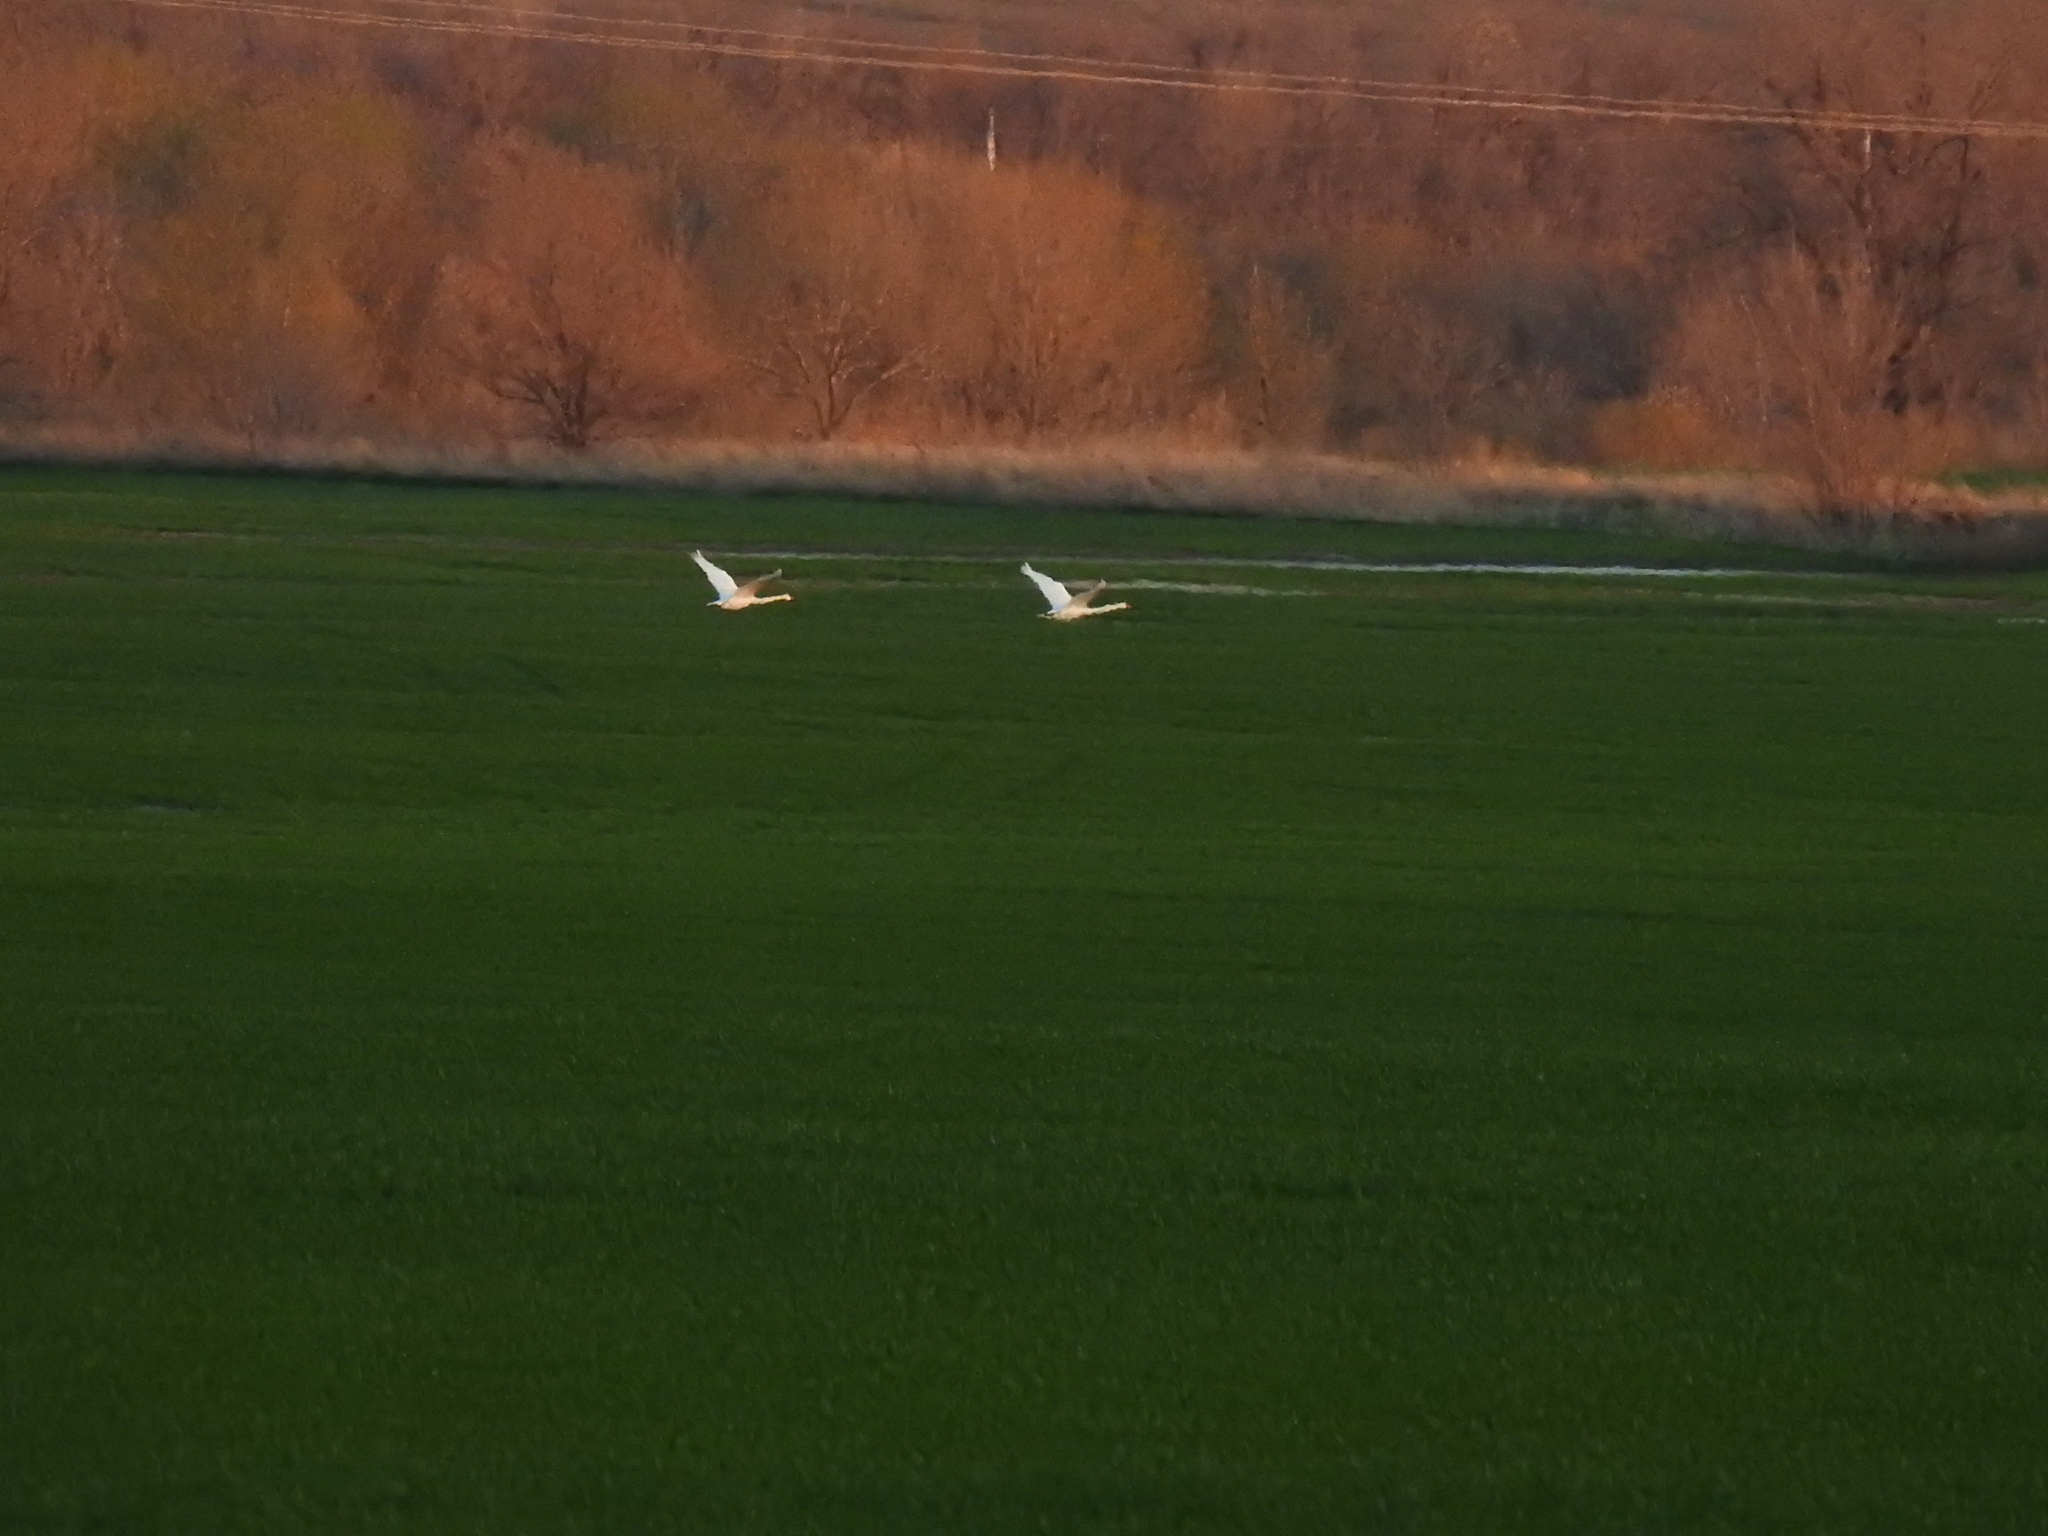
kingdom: Animalia
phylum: Chordata
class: Aves
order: Anseriformes
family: Anatidae
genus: Cygnus
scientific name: Cygnus olor
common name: Mute swan
